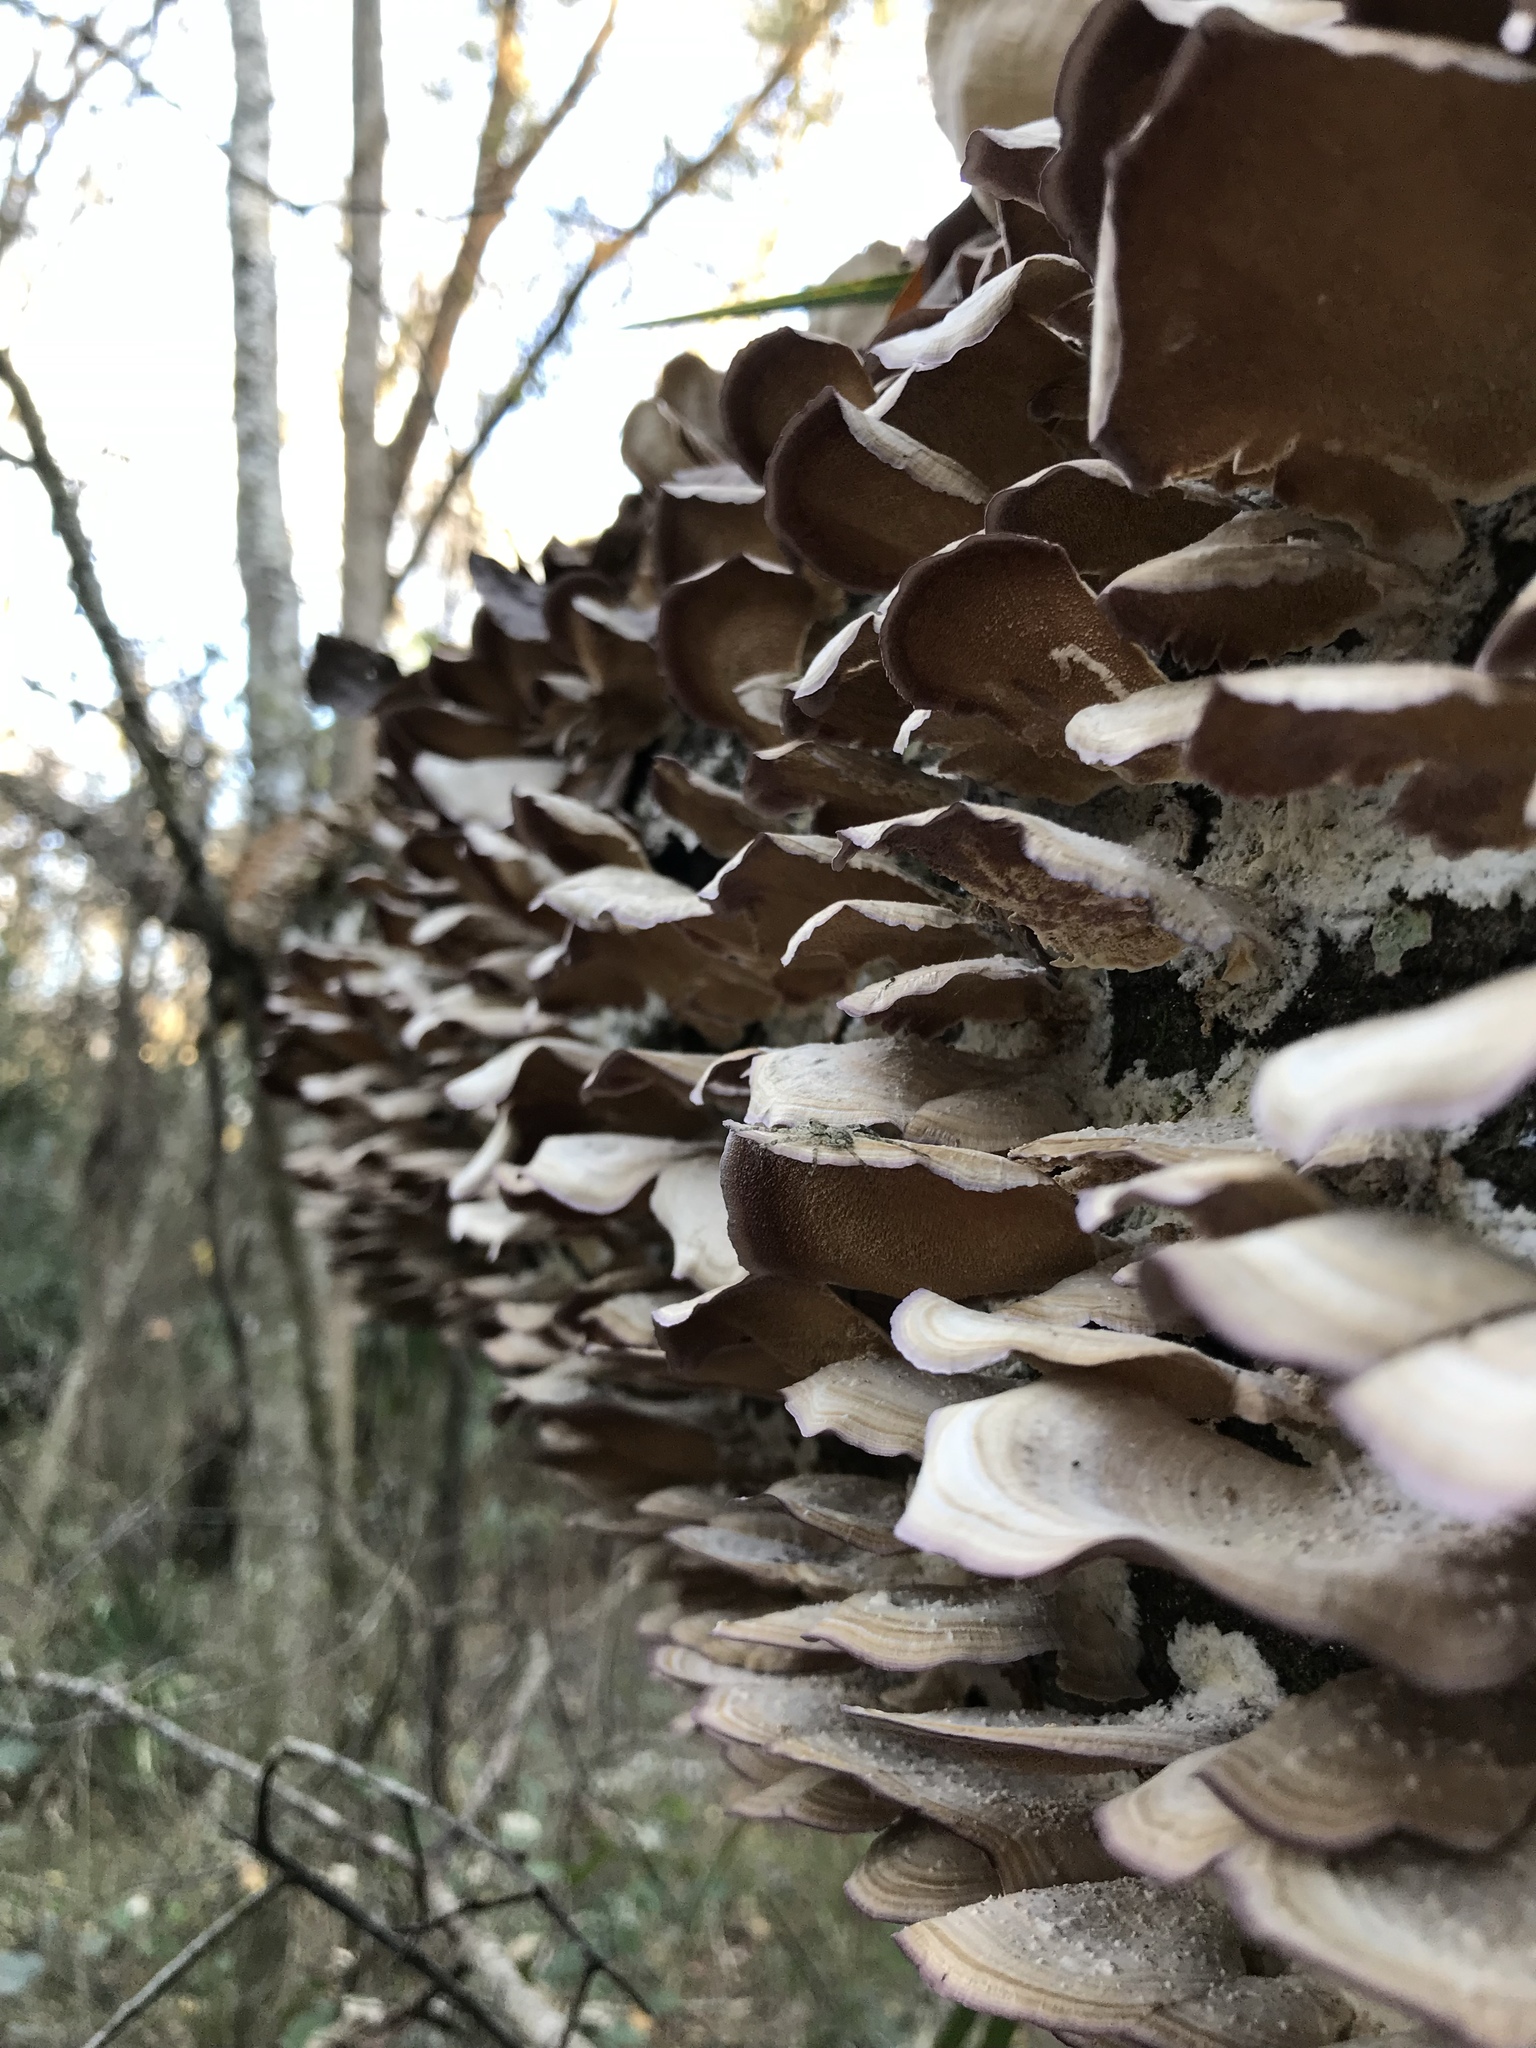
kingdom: Fungi
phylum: Basidiomycota
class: Agaricomycetes
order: Hymenochaetales
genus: Trichaptum
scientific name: Trichaptum biforme
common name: Violet-toothed polypore
